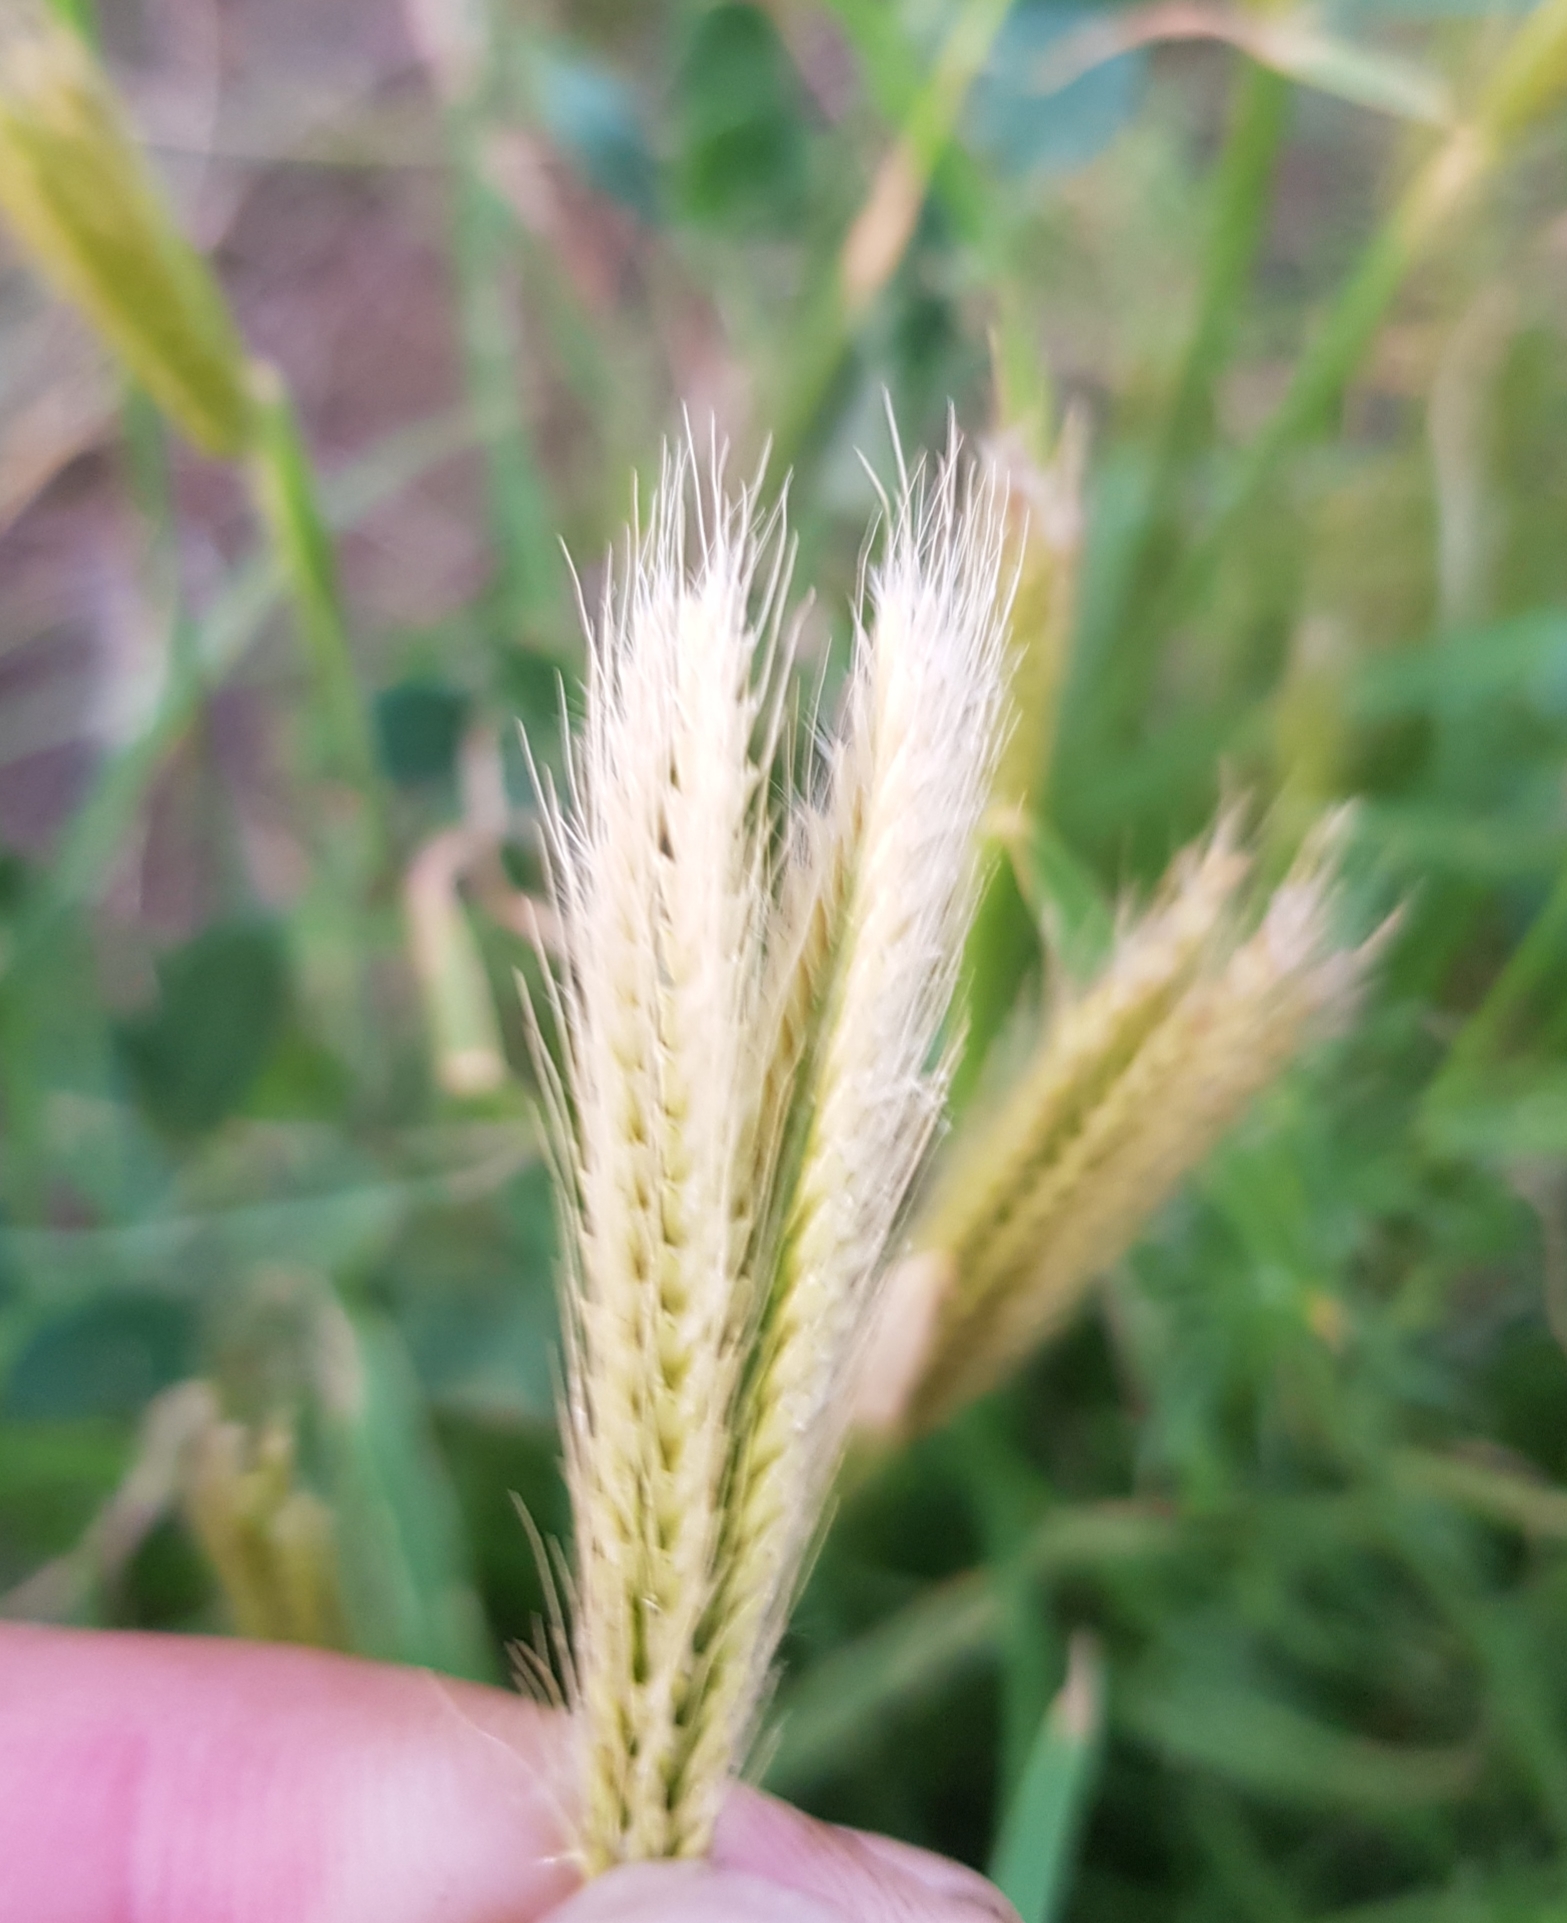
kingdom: Plantae
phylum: Tracheophyta
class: Liliopsida
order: Poales
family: Poaceae
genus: Chloris
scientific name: Chloris virgata
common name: Feathery rhodes-grass
